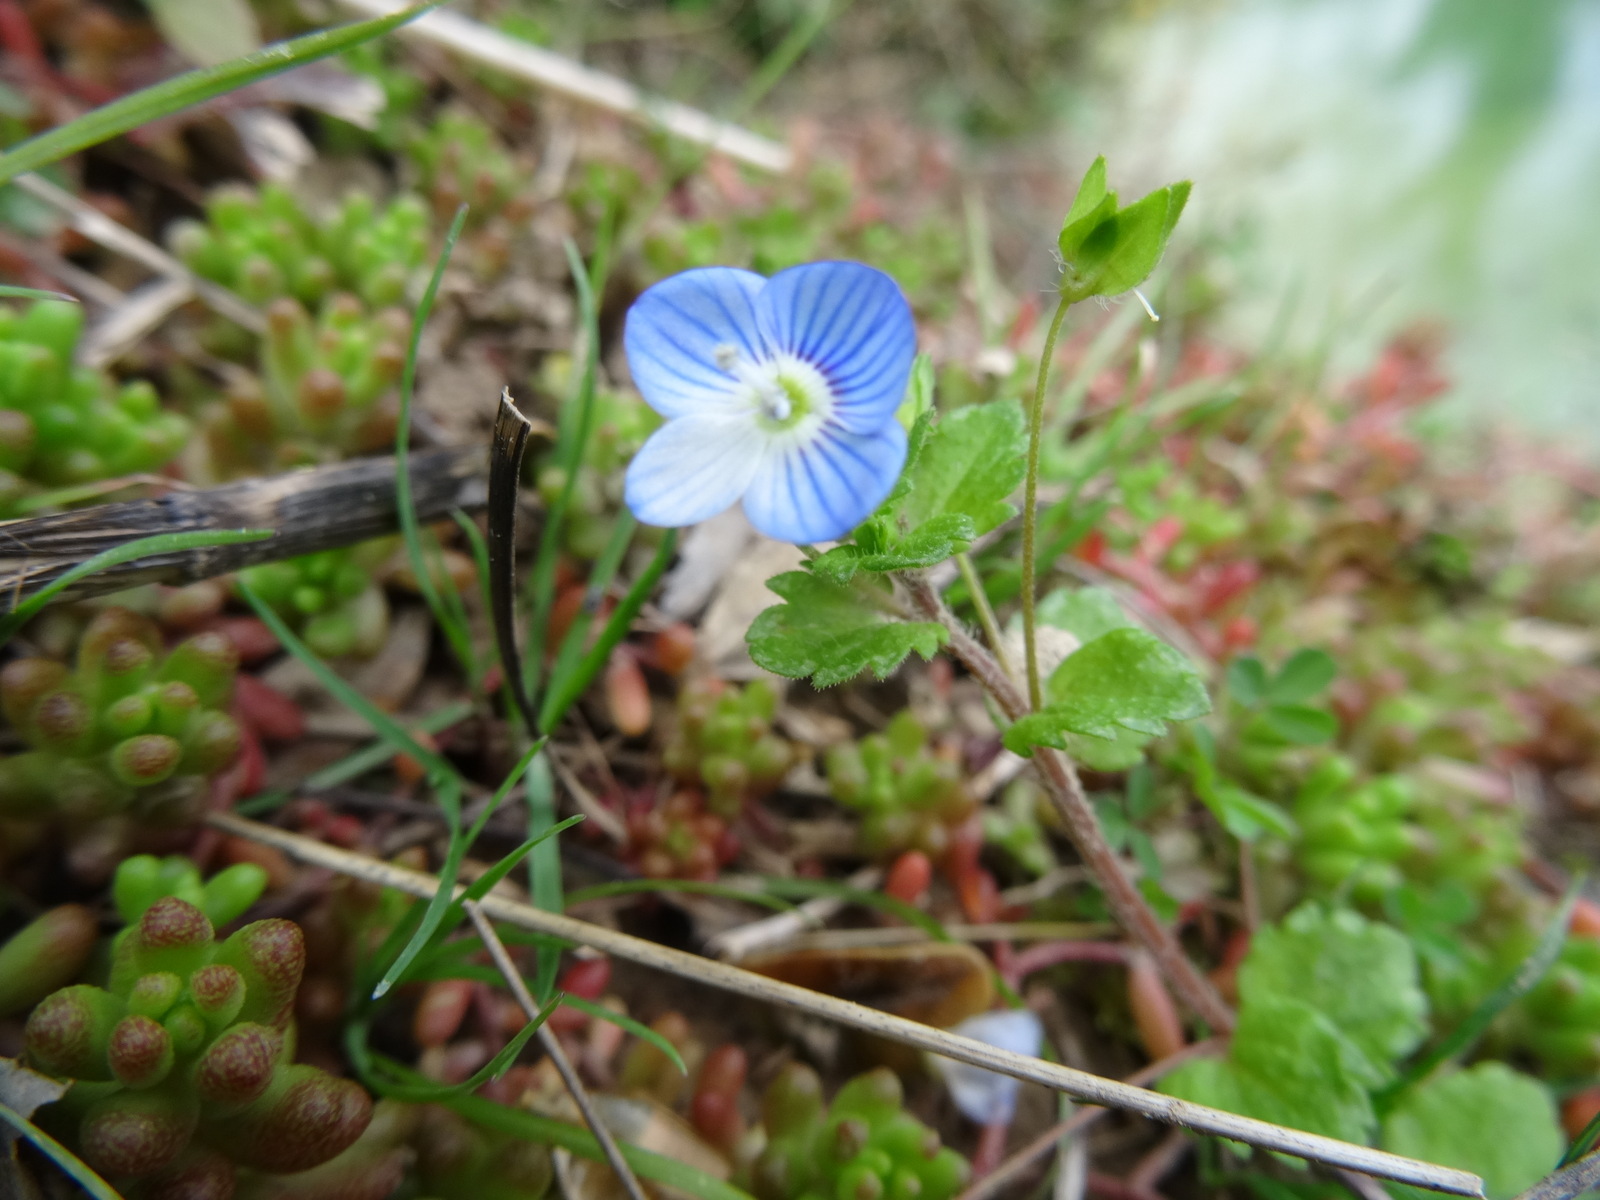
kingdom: Plantae
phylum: Tracheophyta
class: Magnoliopsida
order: Lamiales
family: Plantaginaceae
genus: Veronica
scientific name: Veronica persica
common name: Common field-speedwell
